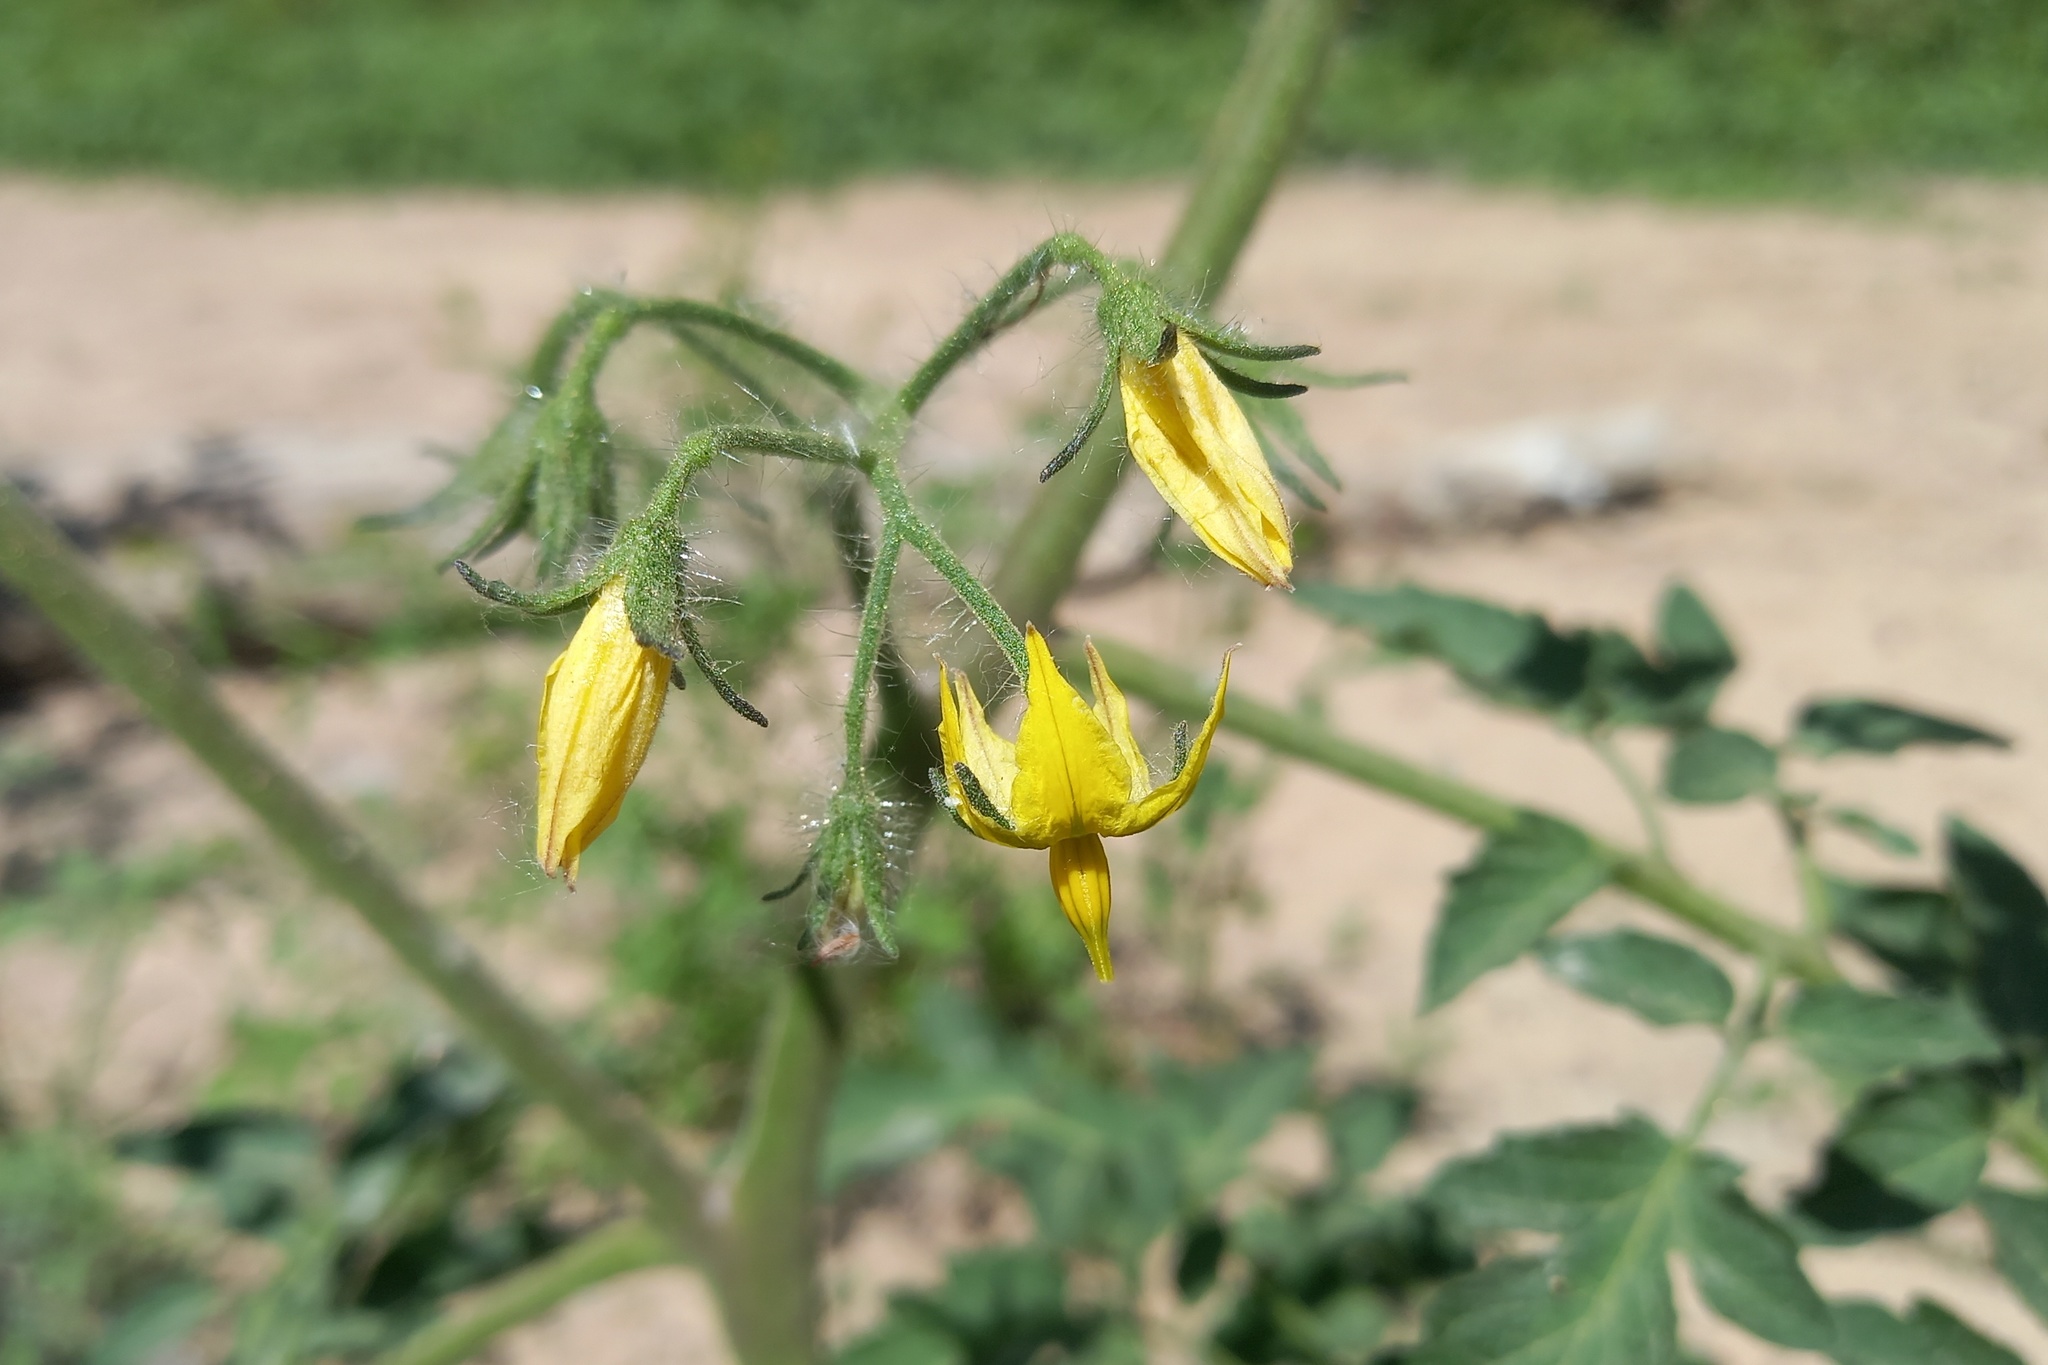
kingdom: Plantae
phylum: Tracheophyta
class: Magnoliopsida
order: Solanales
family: Solanaceae
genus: Solanum
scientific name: Solanum lycopersicum
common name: Garden tomato
